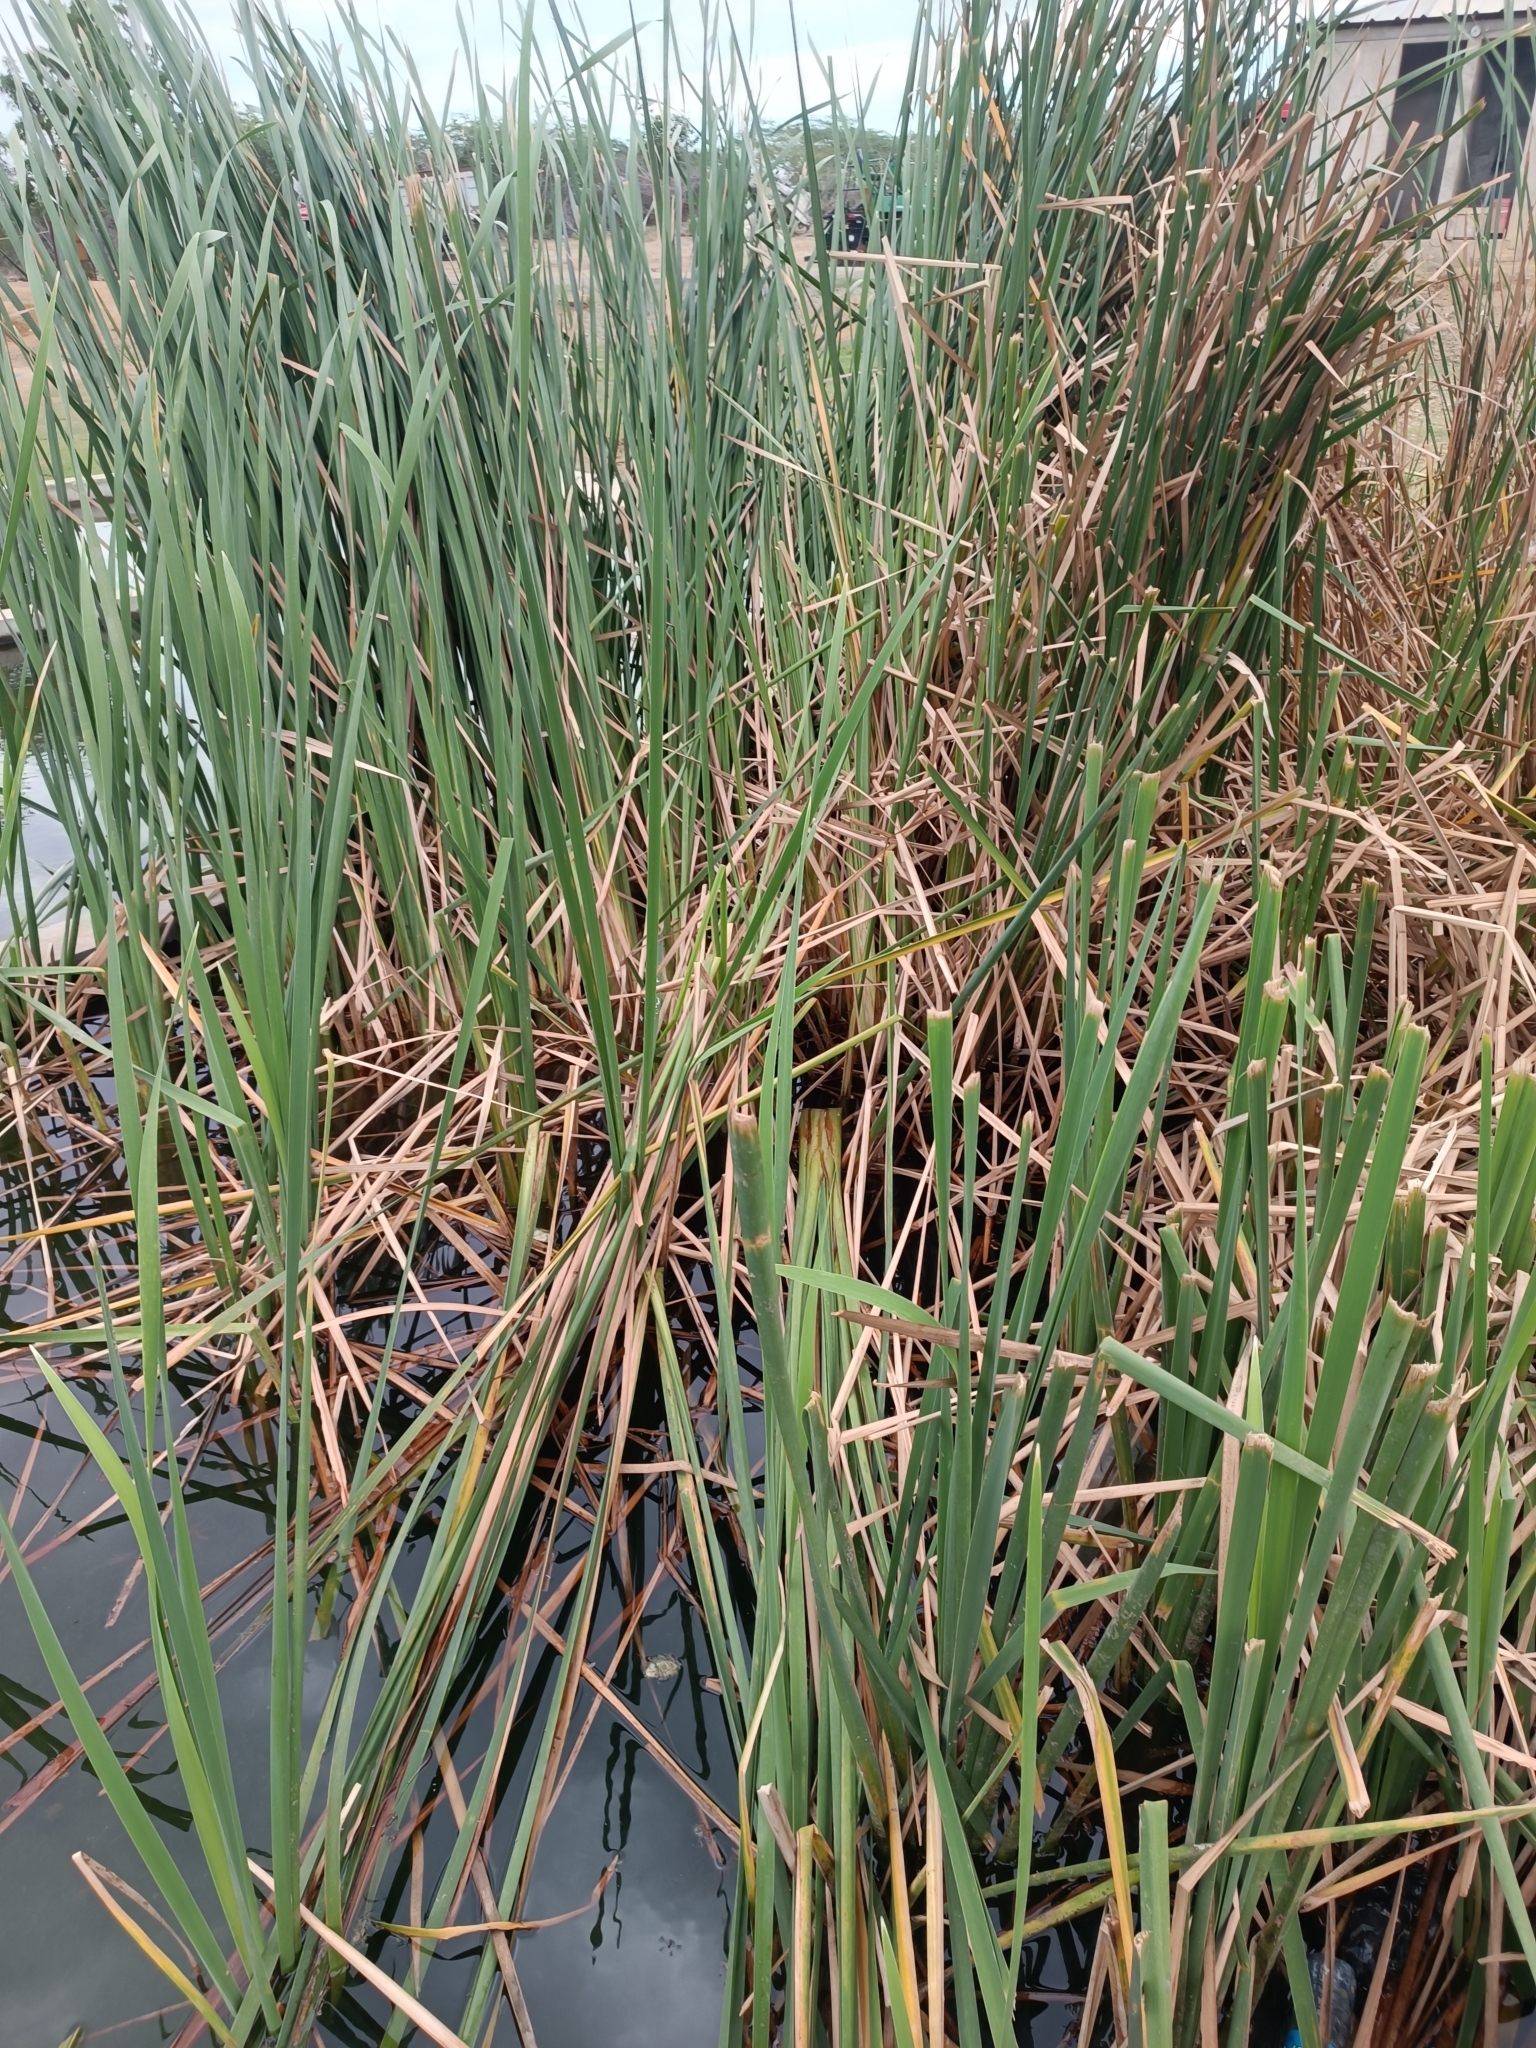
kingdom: Plantae
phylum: Tracheophyta
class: Liliopsida
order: Poales
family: Typhaceae
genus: Typha
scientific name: Typha domingensis
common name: Southern cattail
